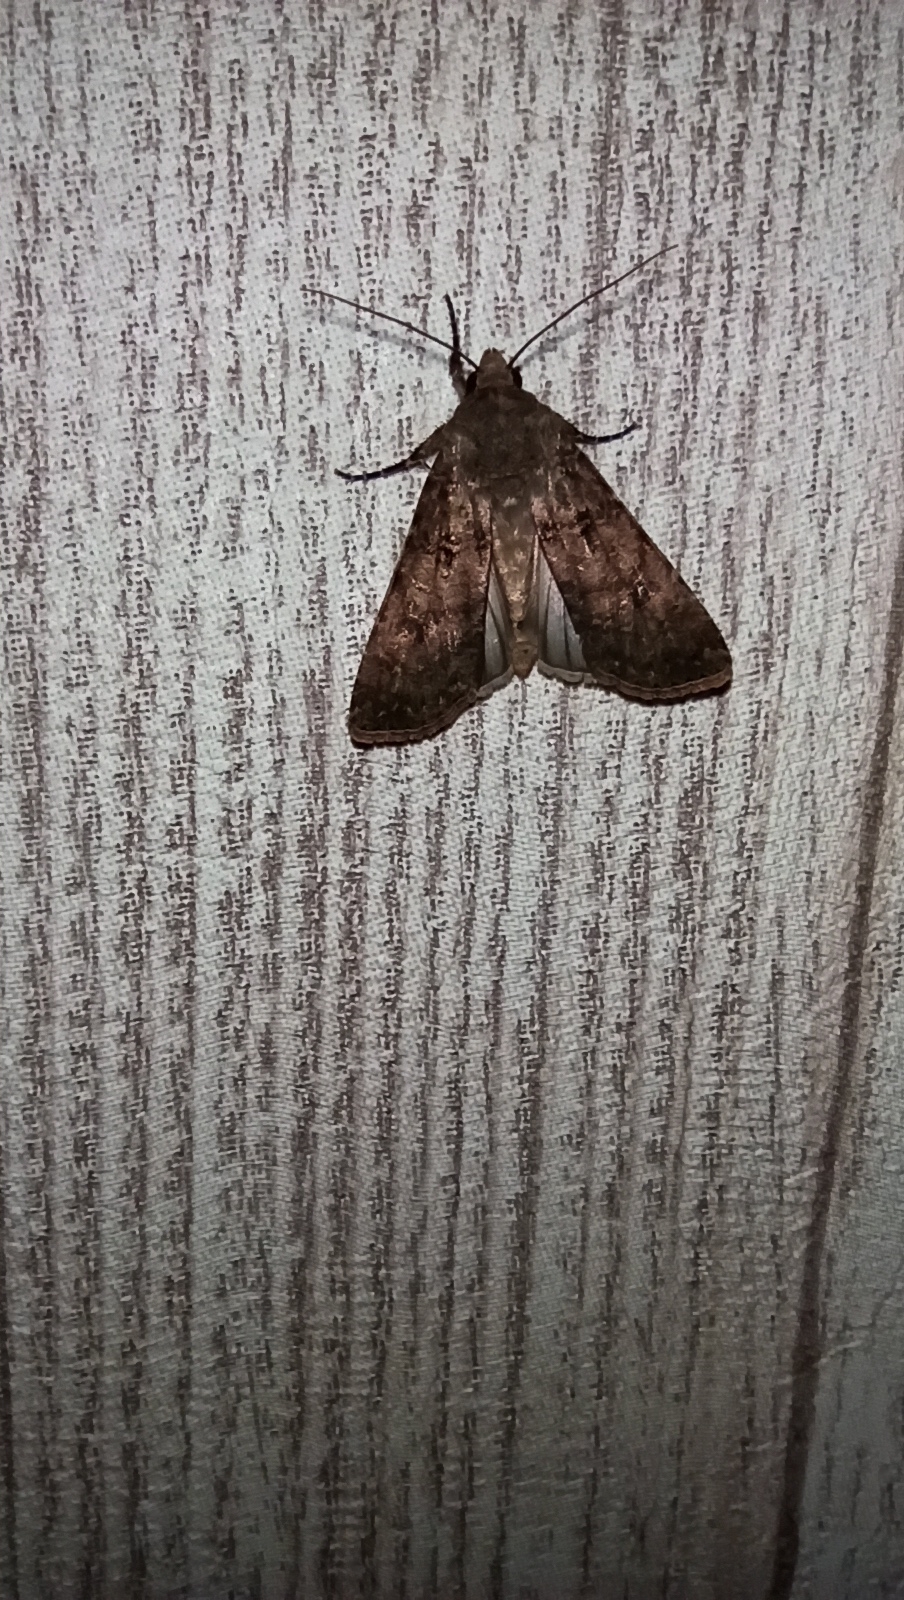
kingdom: Animalia
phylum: Arthropoda
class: Insecta
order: Lepidoptera
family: Noctuidae
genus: Agrotis
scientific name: Agrotis segetum
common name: Turnip moth
